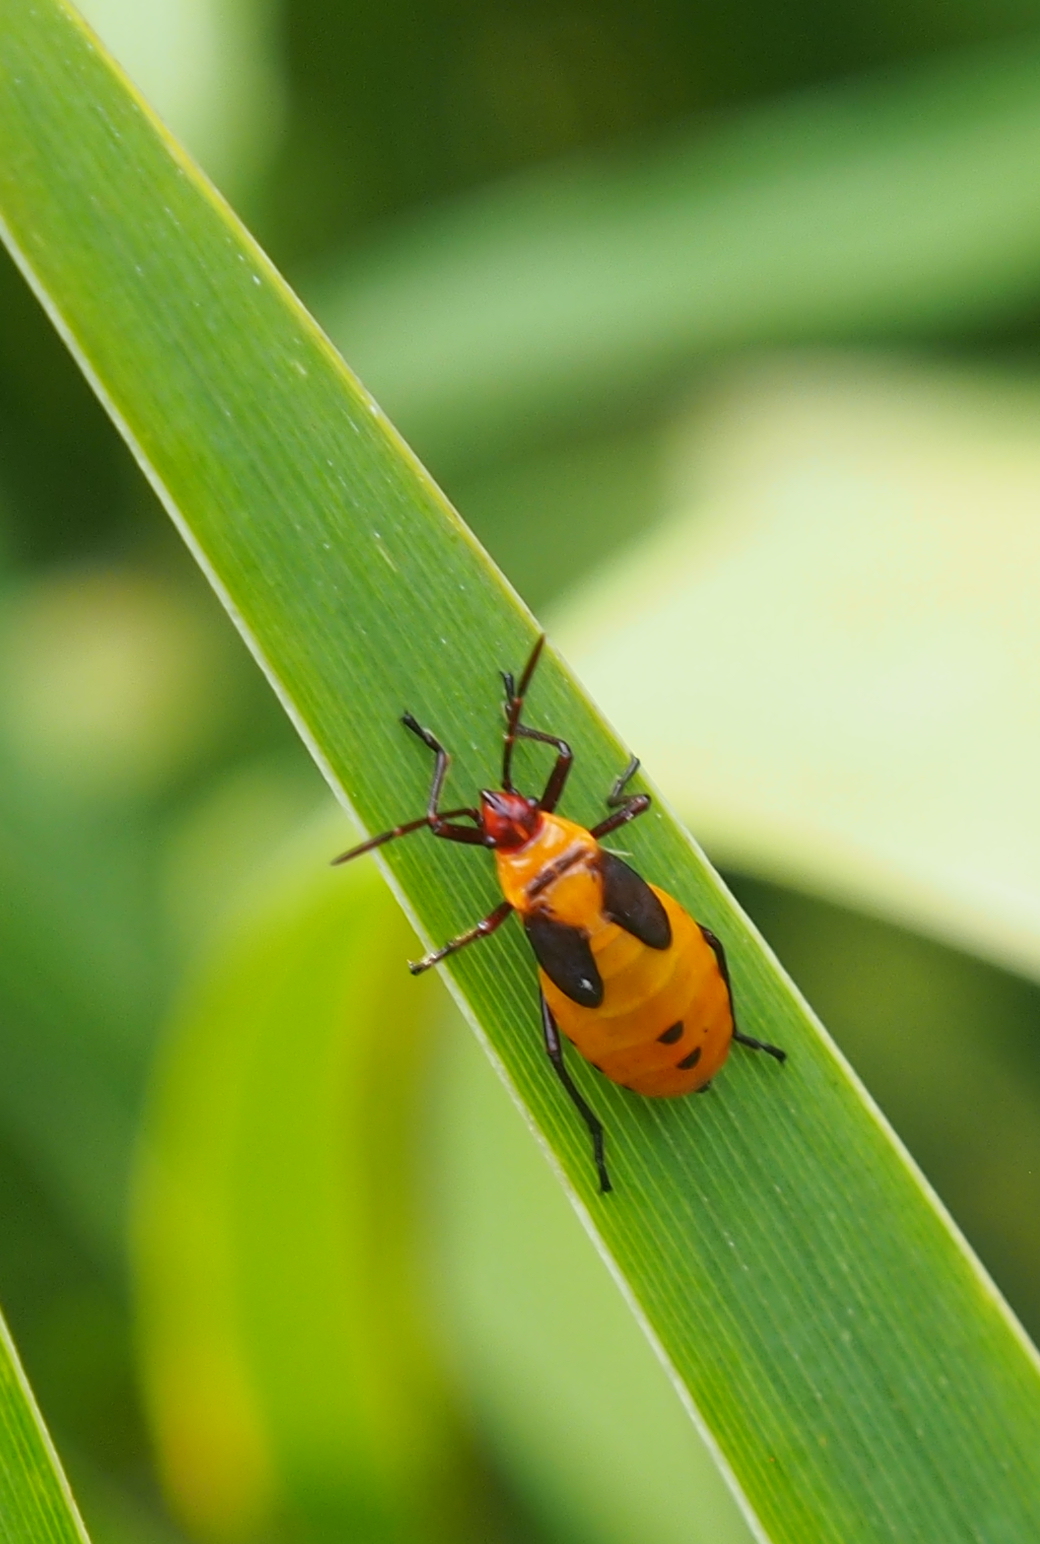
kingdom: Animalia
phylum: Arthropoda
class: Insecta
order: Hemiptera
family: Lygaeidae
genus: Oncopeltus
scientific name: Oncopeltus fasciatus
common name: Large milkweed bug
